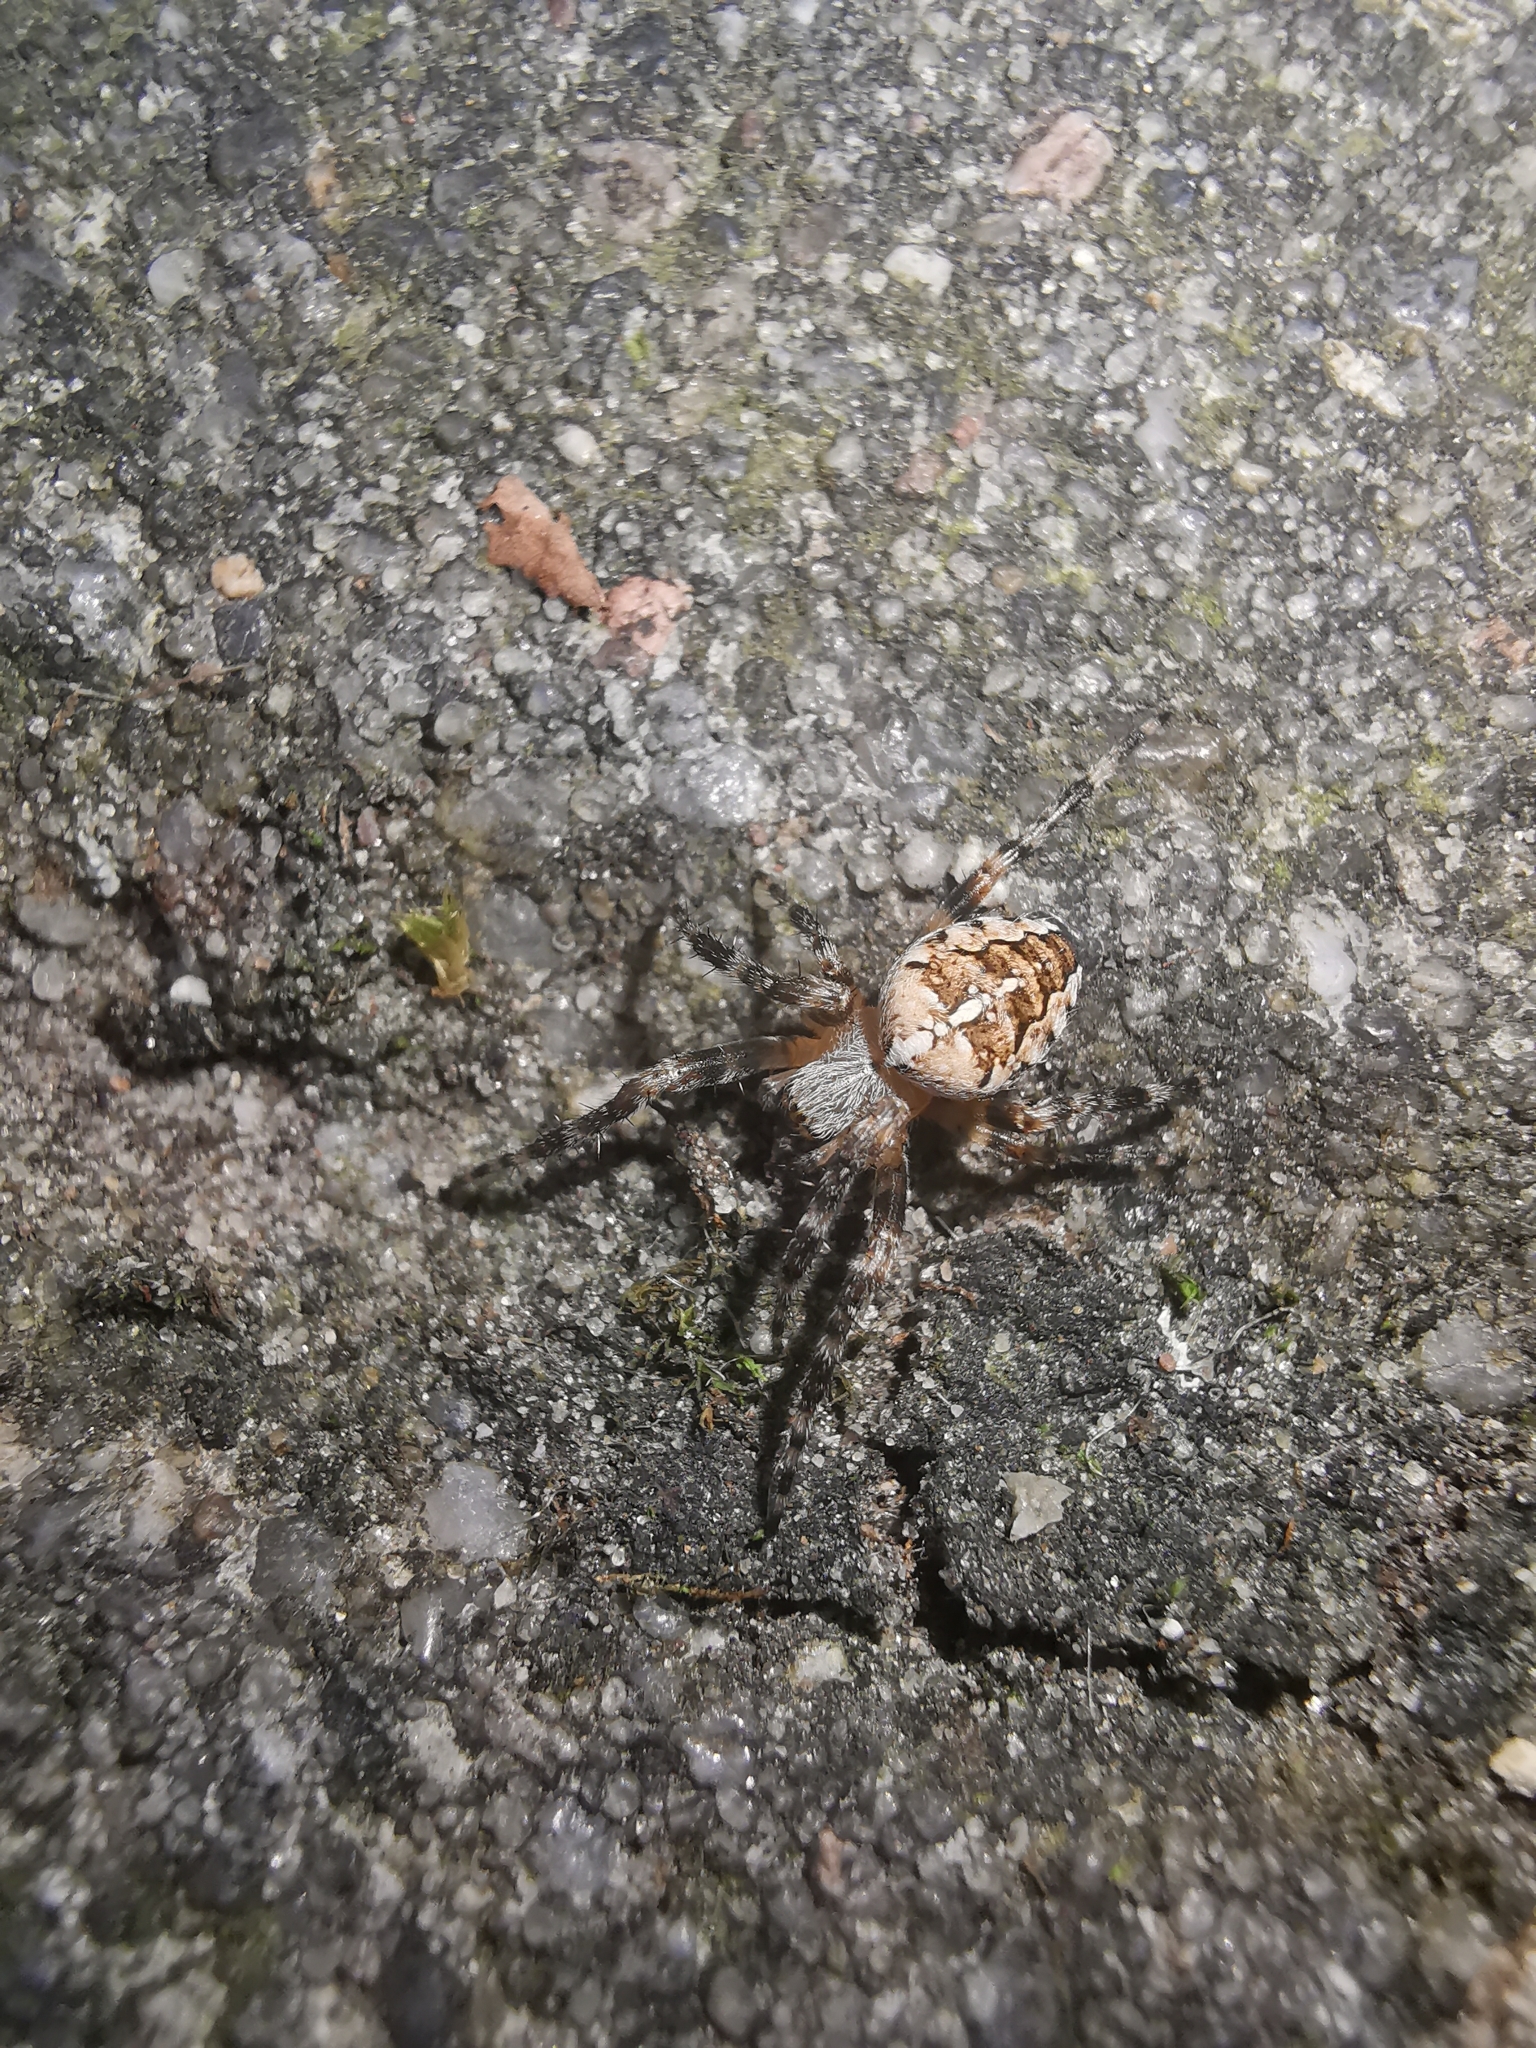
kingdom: Animalia
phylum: Arthropoda
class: Arachnida
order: Araneae
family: Araneidae
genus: Araneus
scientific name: Araneus diadematus
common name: Cross orbweaver
